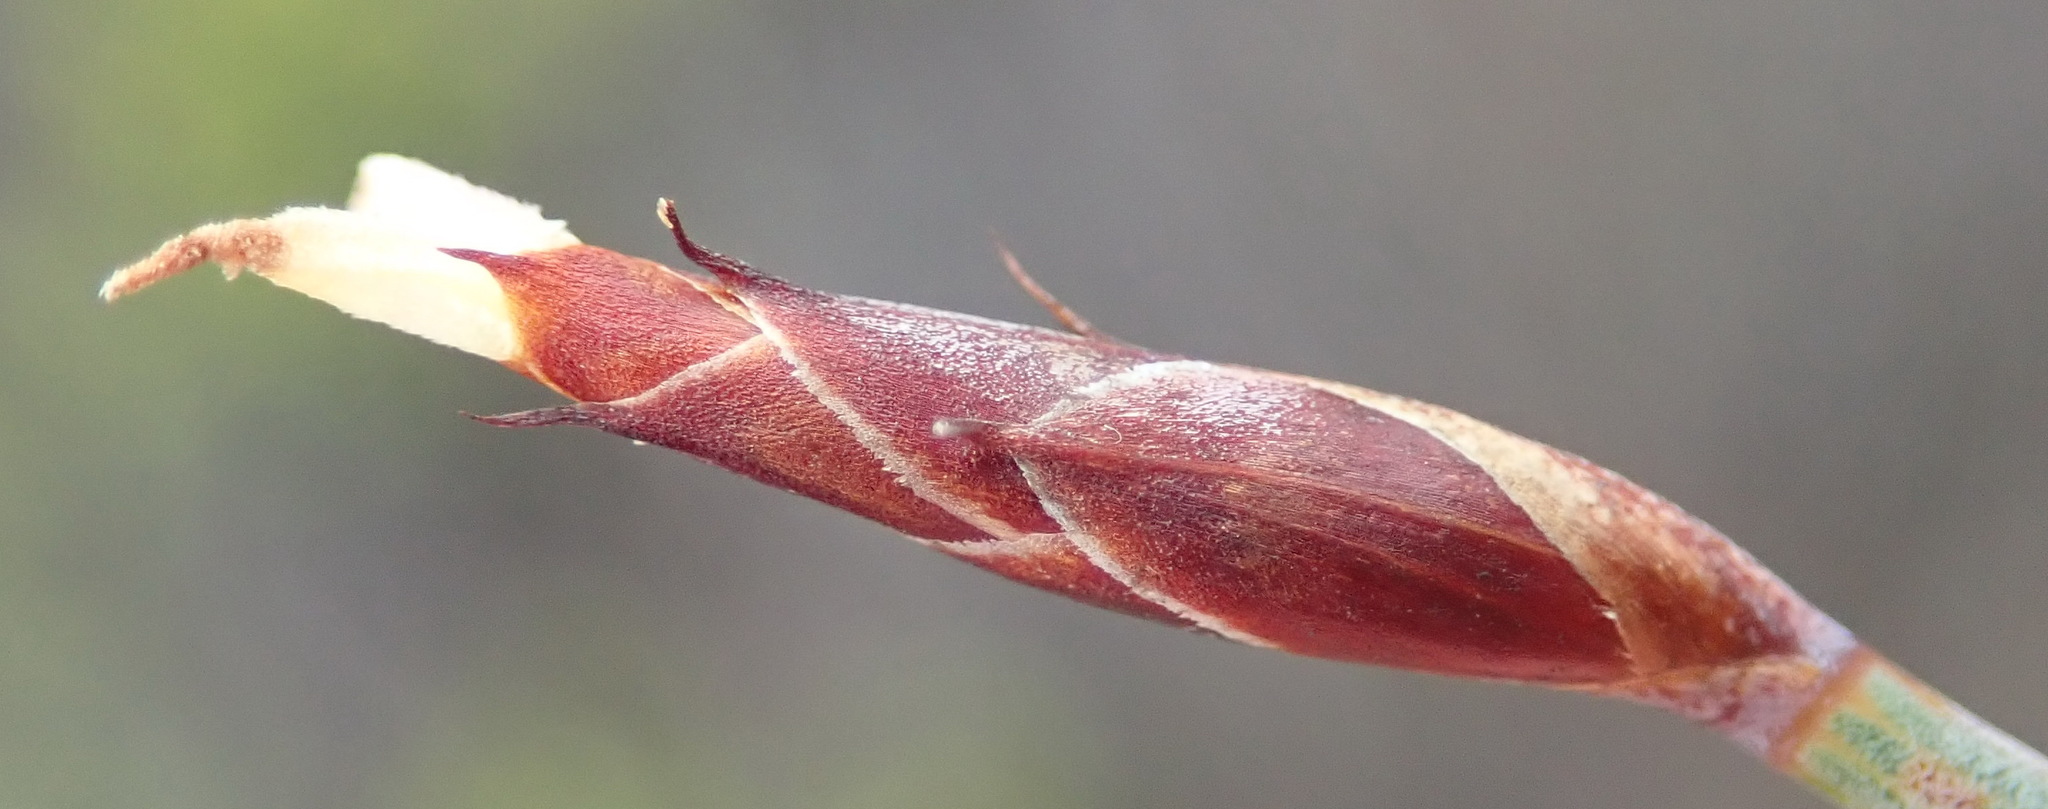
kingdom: Plantae
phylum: Tracheophyta
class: Liliopsida
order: Poales
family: Restionaceae
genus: Hypodiscus
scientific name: Hypodiscus procurrens
